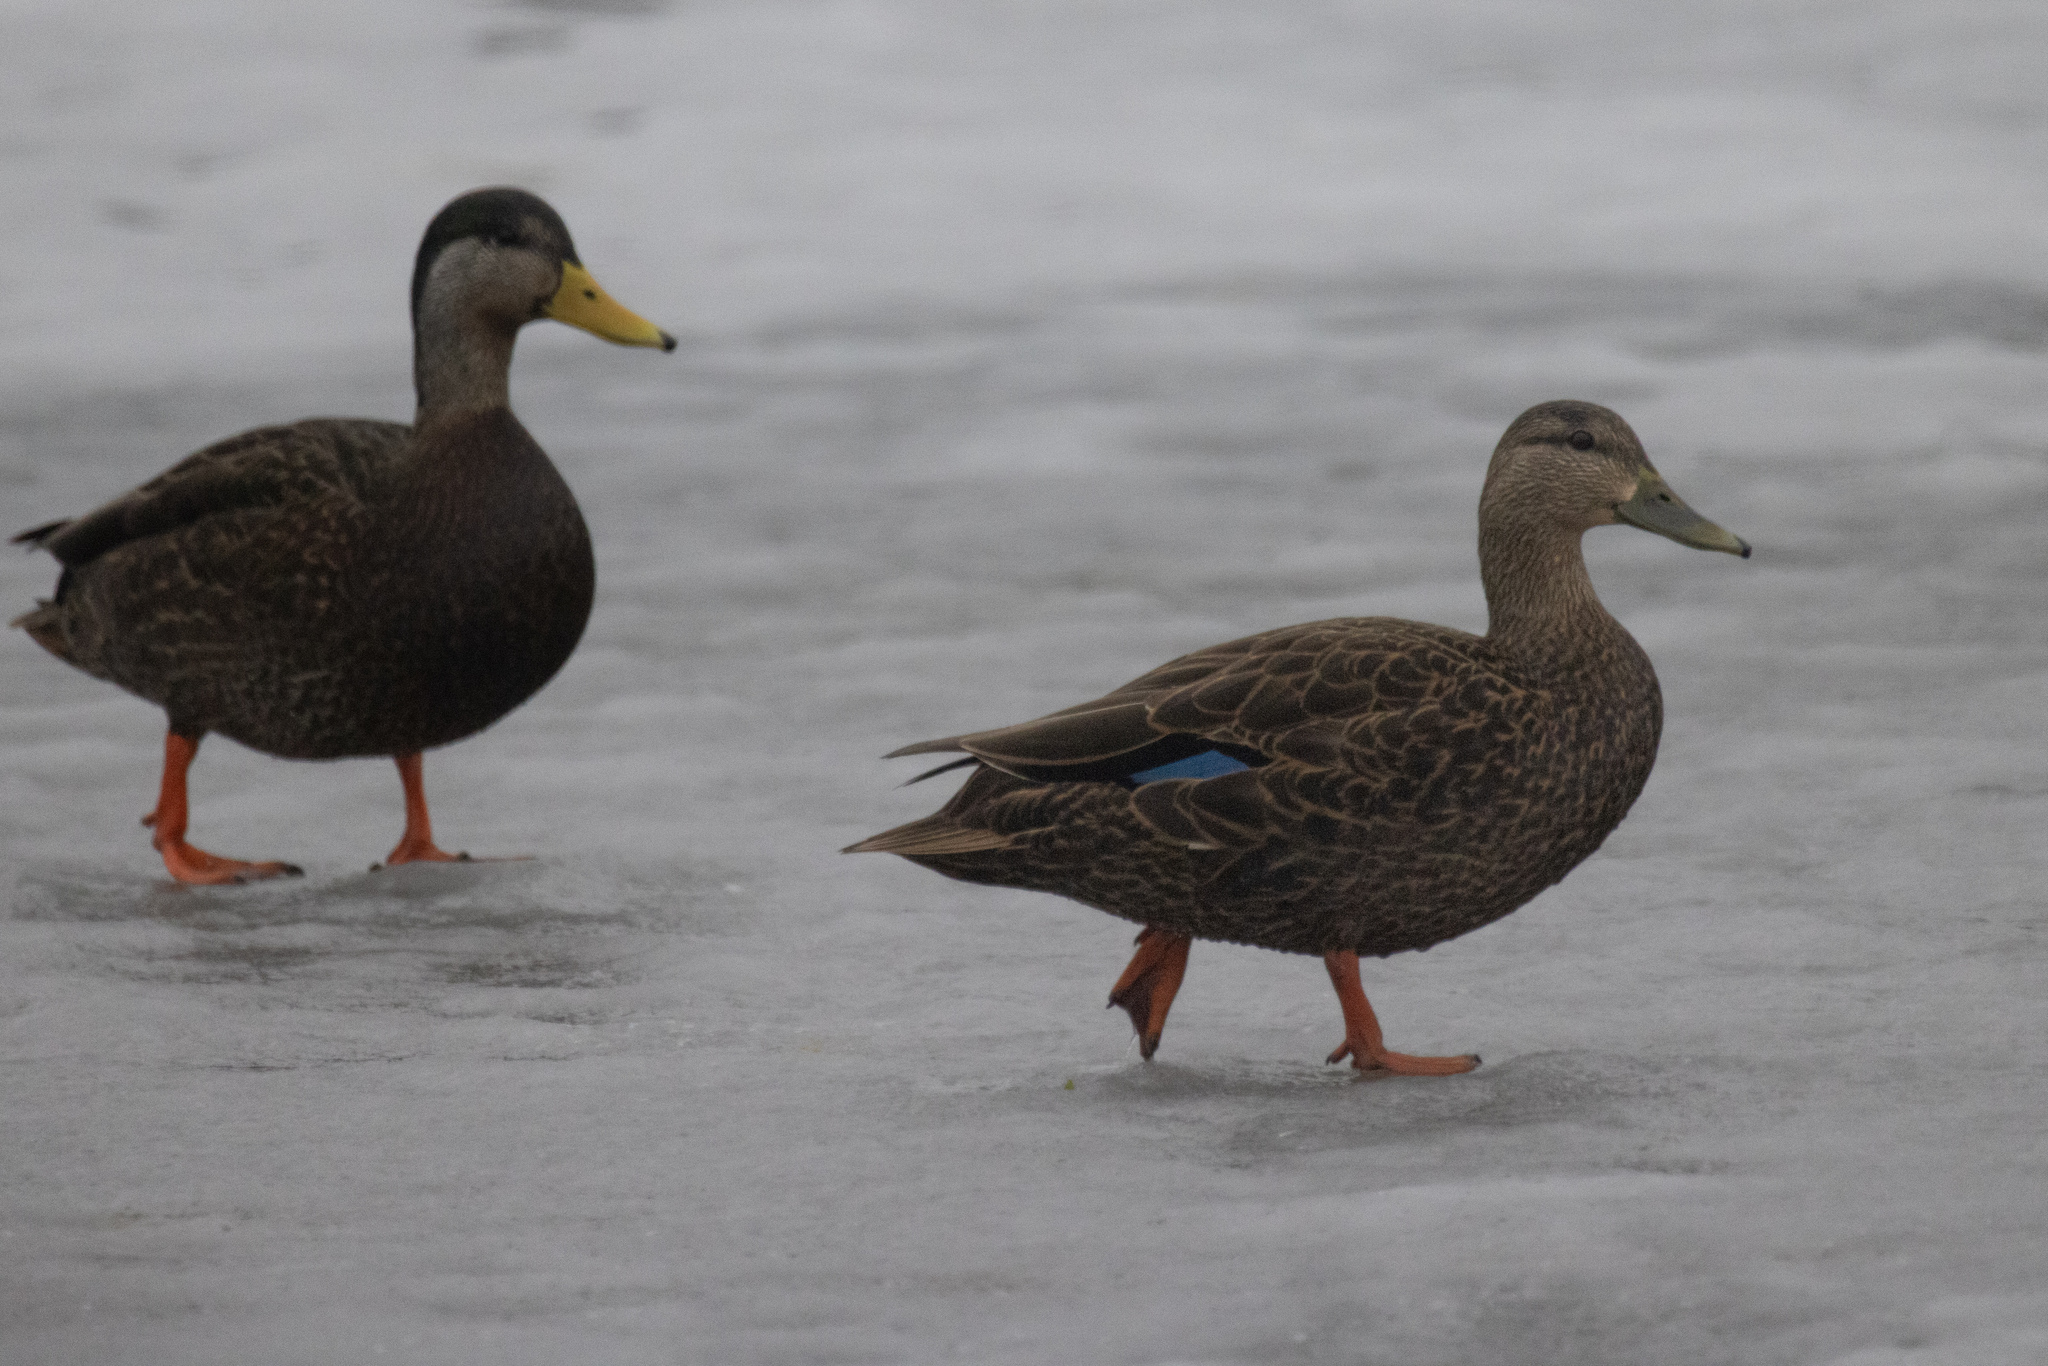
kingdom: Animalia
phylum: Chordata
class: Aves
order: Anseriformes
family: Anatidae
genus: Anas
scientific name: Anas rubripes
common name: American black duck
